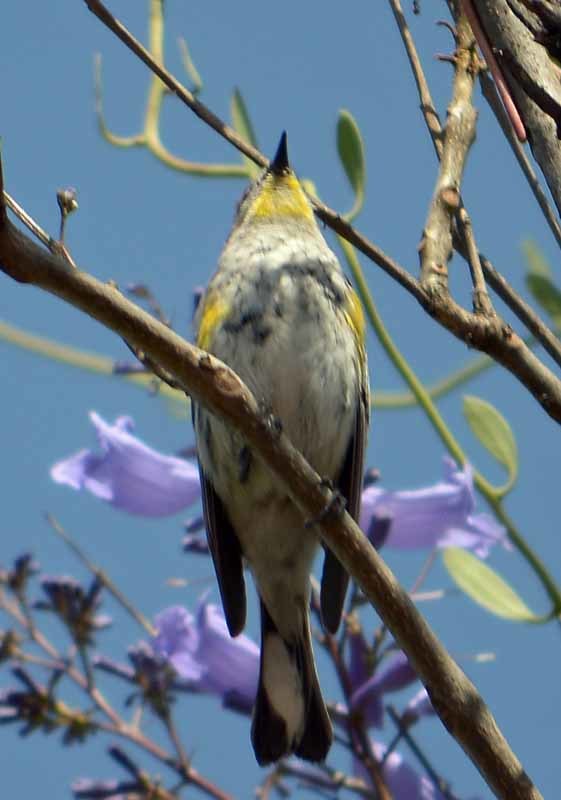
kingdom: Animalia
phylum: Chordata
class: Aves
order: Passeriformes
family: Parulidae
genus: Setophaga
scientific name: Setophaga coronata
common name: Myrtle warbler
